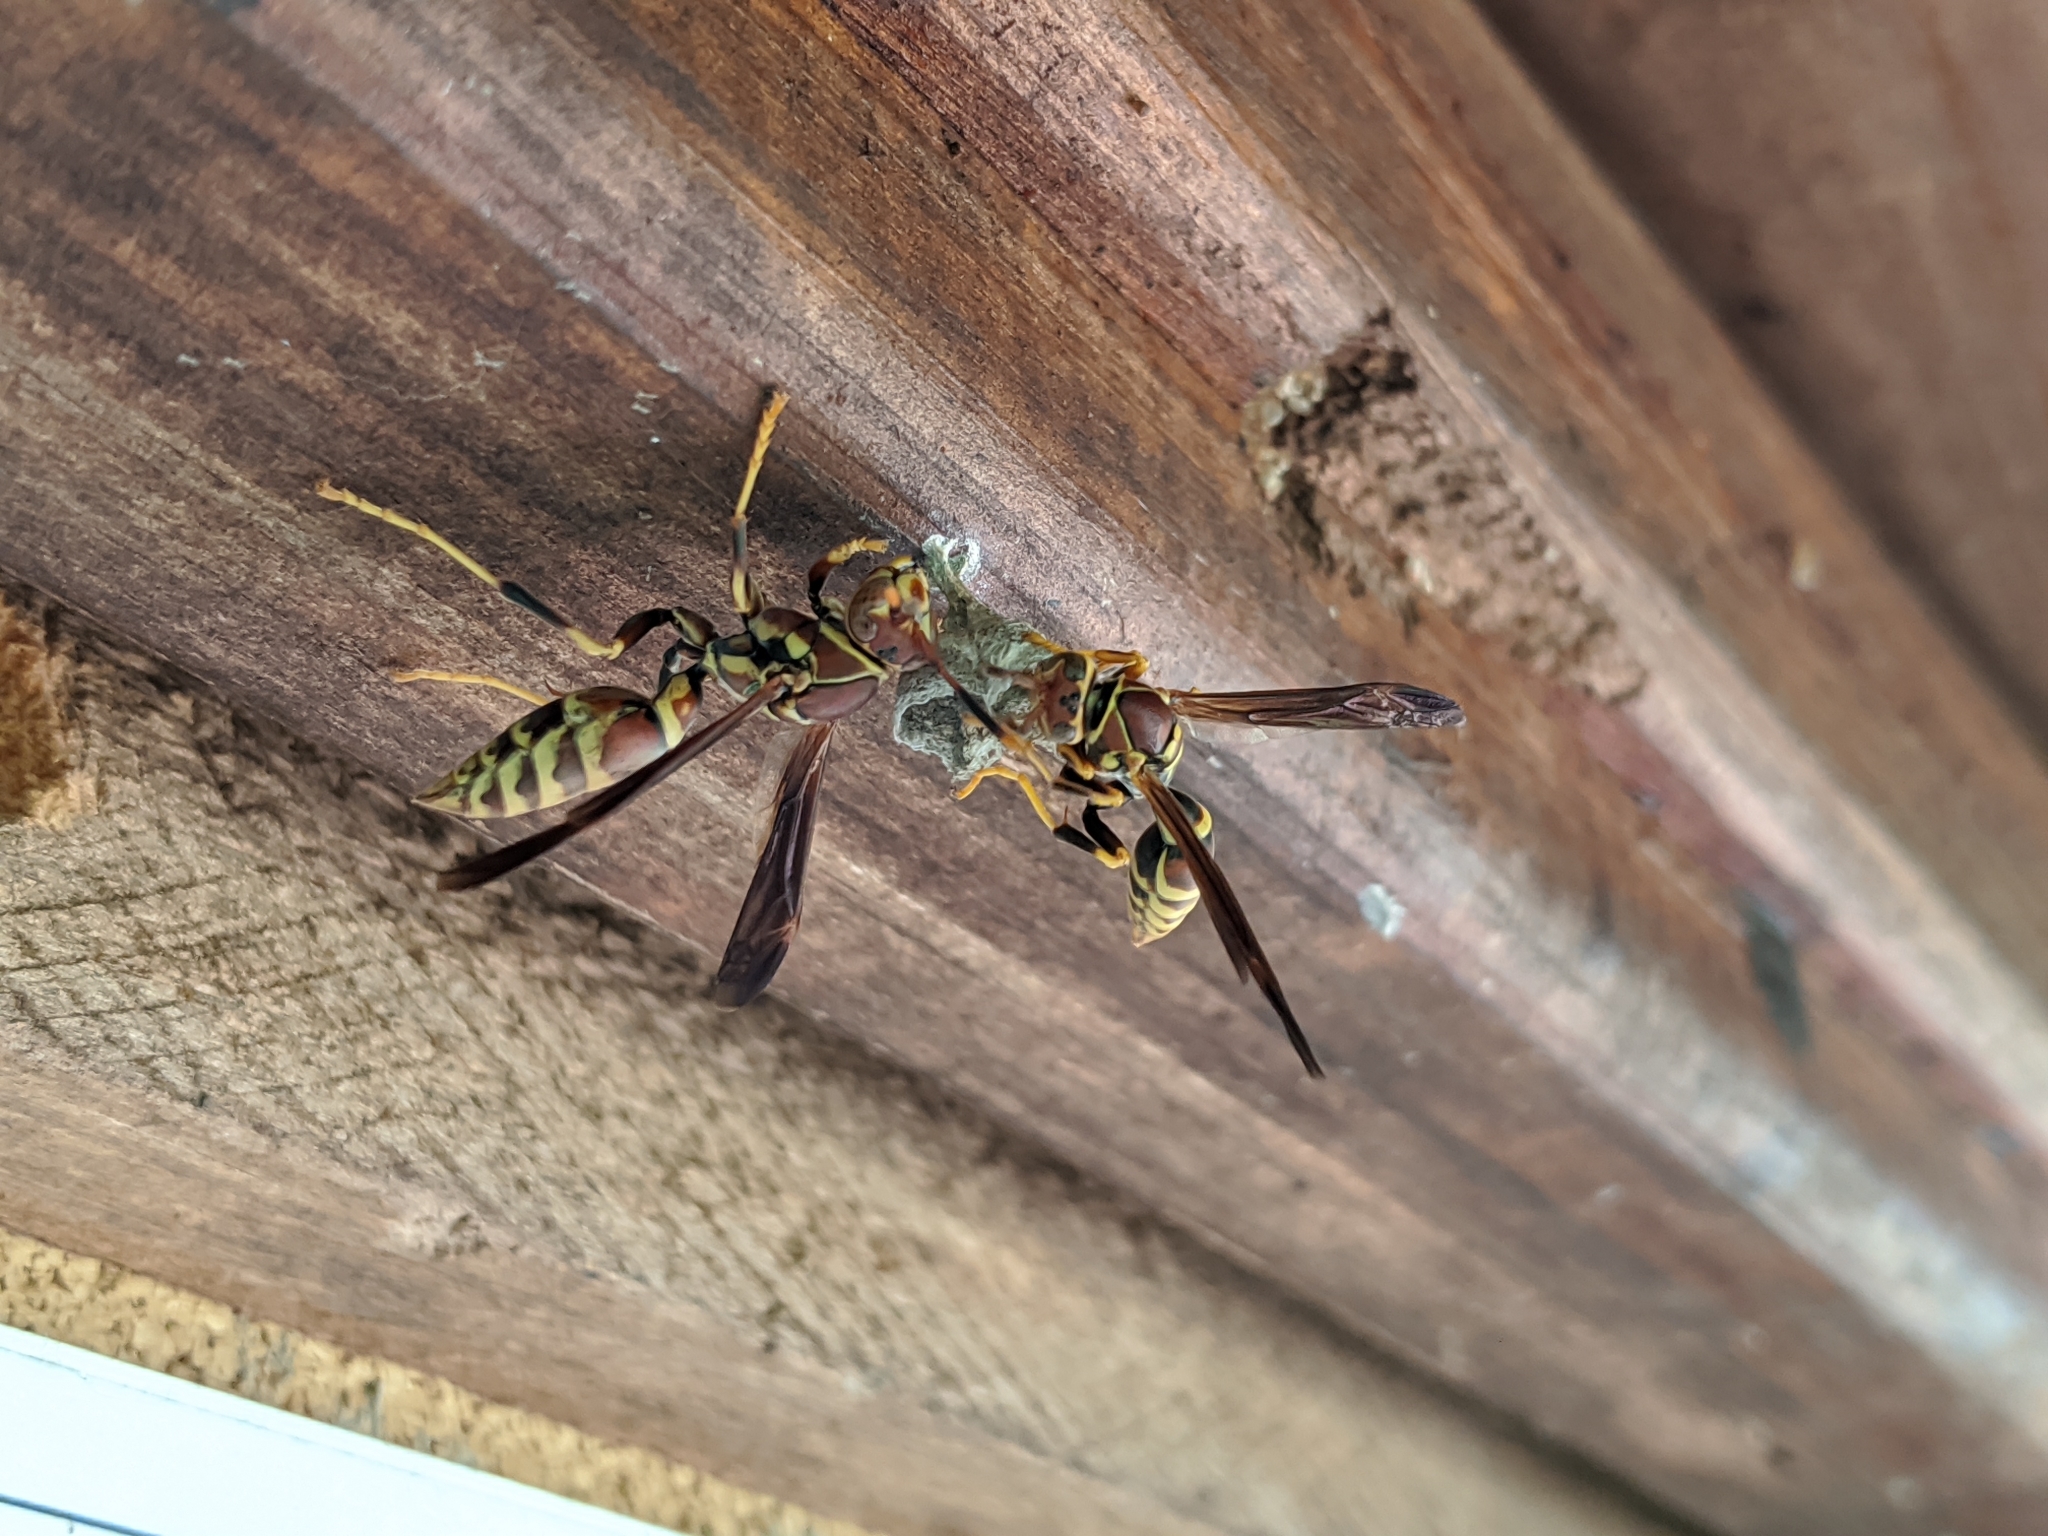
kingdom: Animalia
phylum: Arthropoda
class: Insecta
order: Hymenoptera
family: Eumenidae
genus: Polistes
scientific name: Polistes exclamans
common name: Paper wasp
